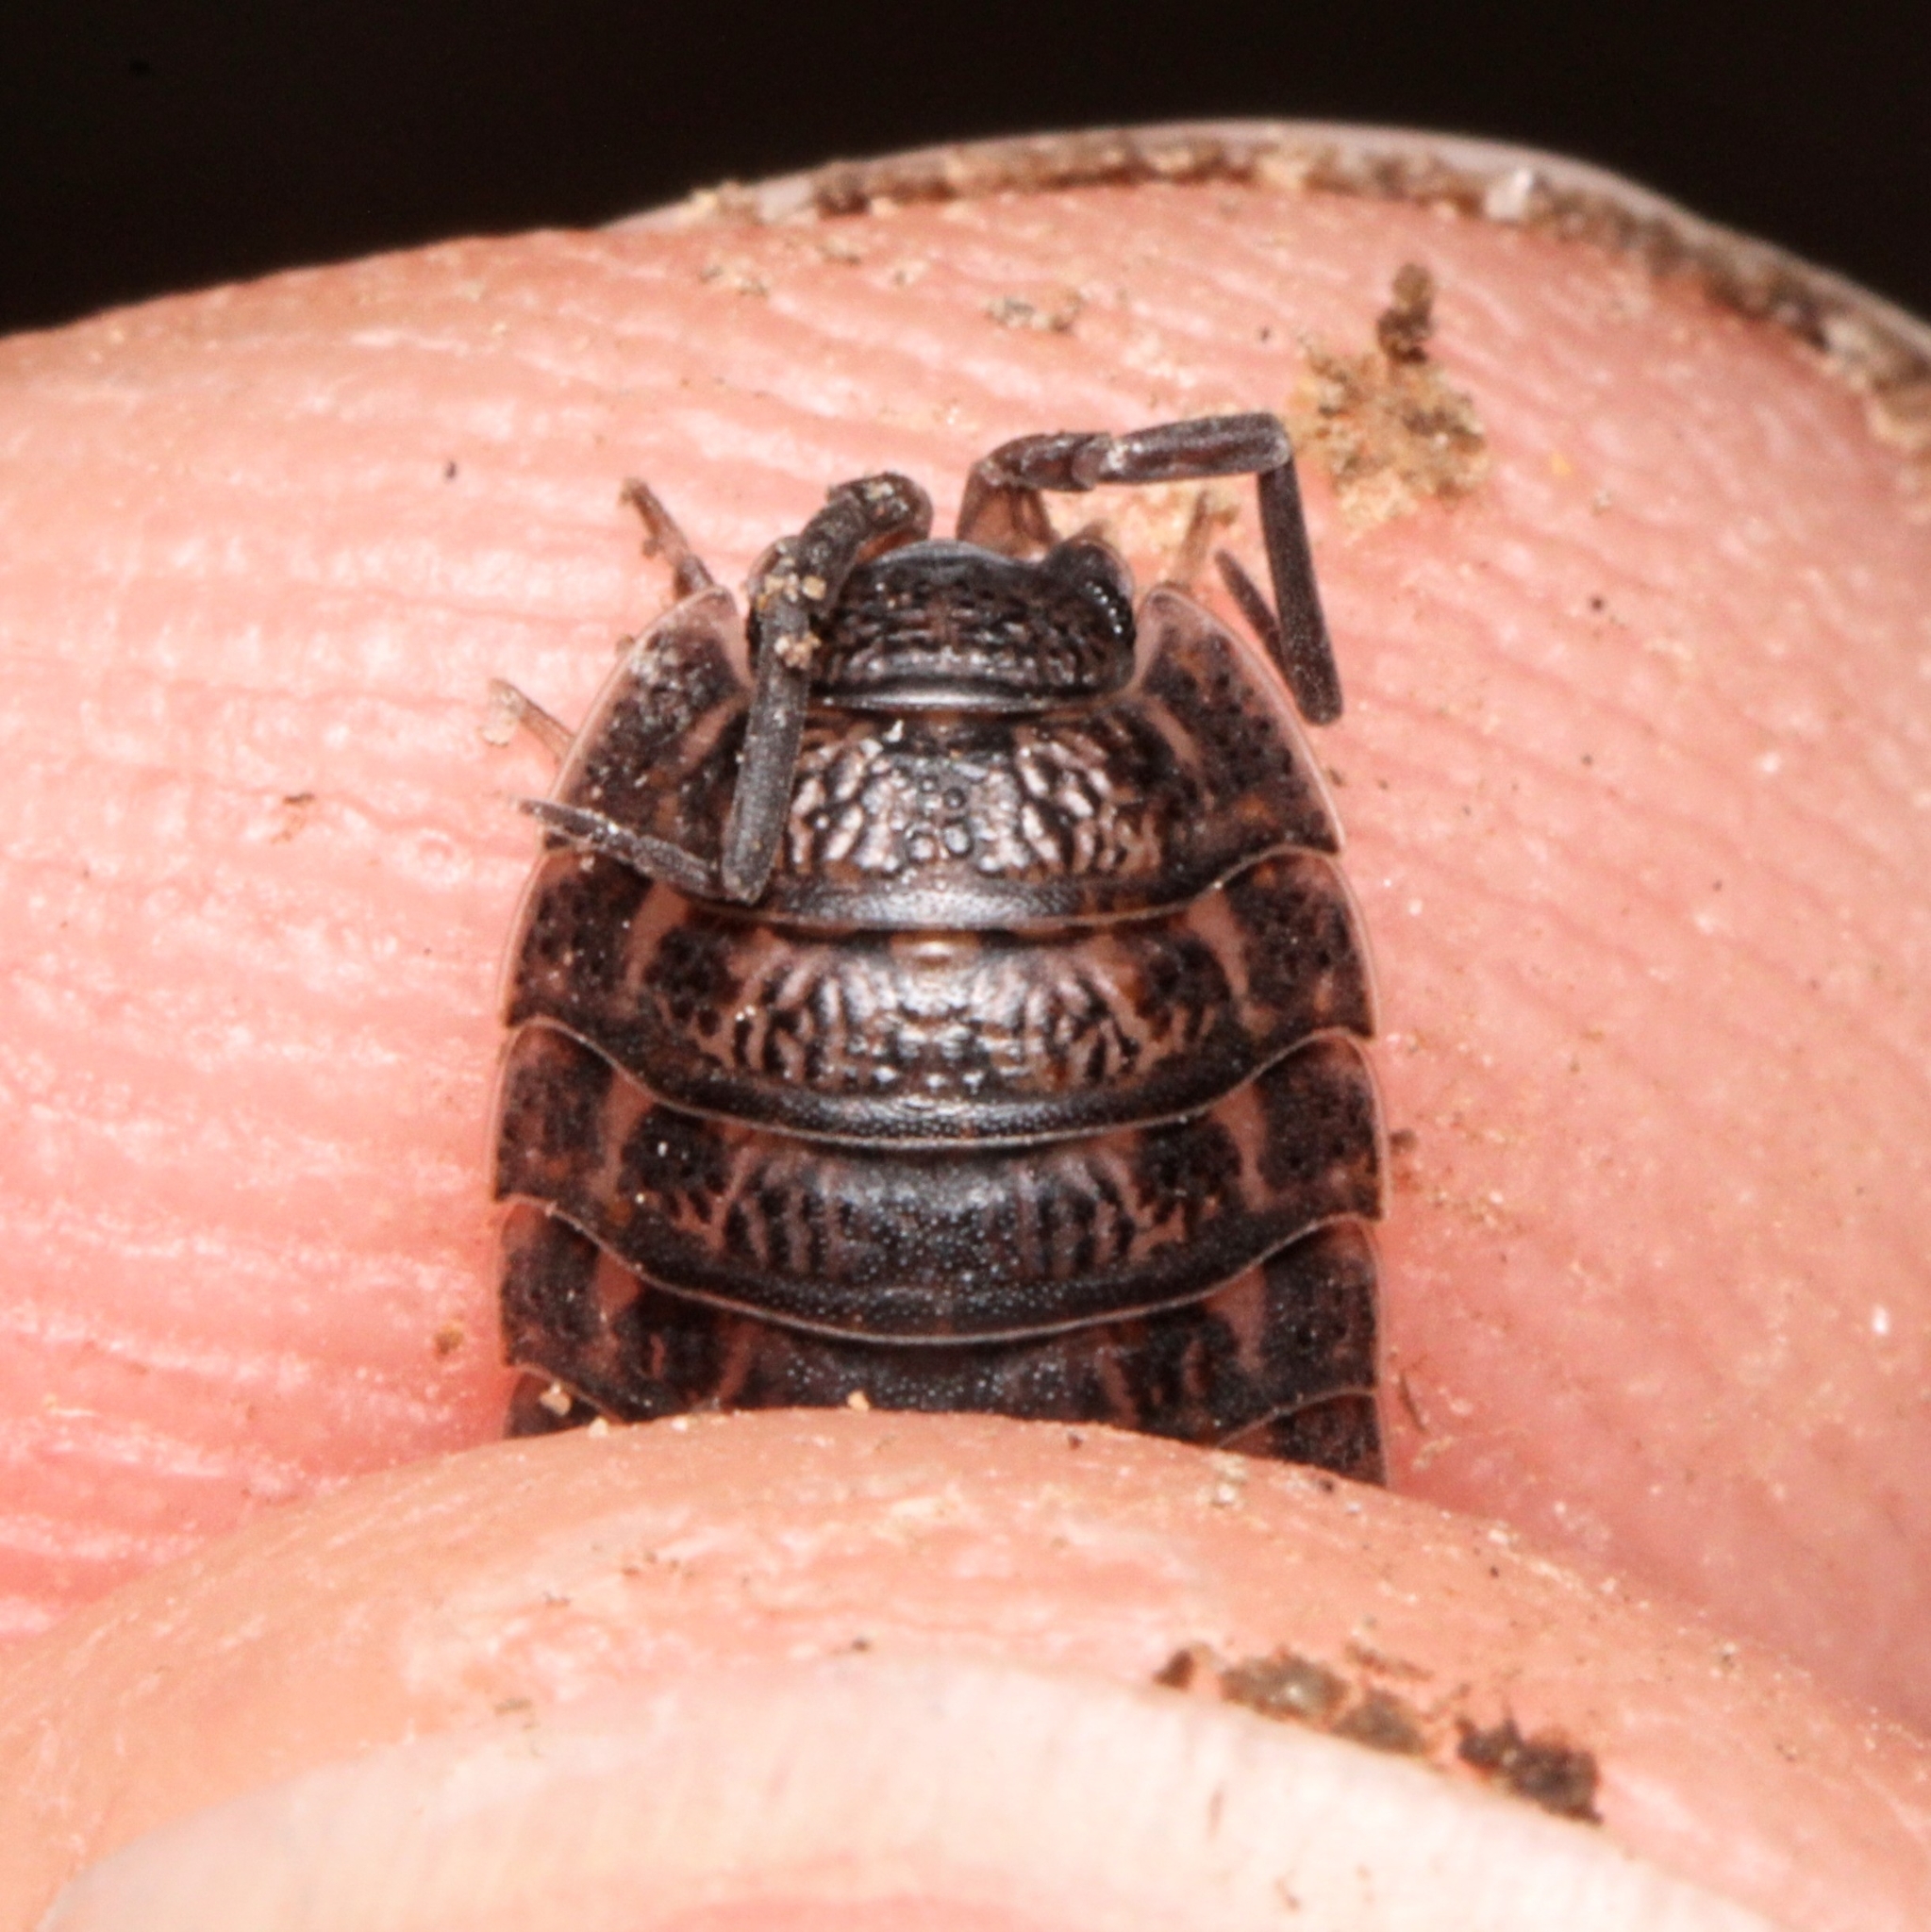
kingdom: Animalia
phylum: Arthropoda
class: Malacostraca
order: Isopoda
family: Trachelipodidae
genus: Trachelipus
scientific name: Trachelipus rathkii
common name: Isopod
